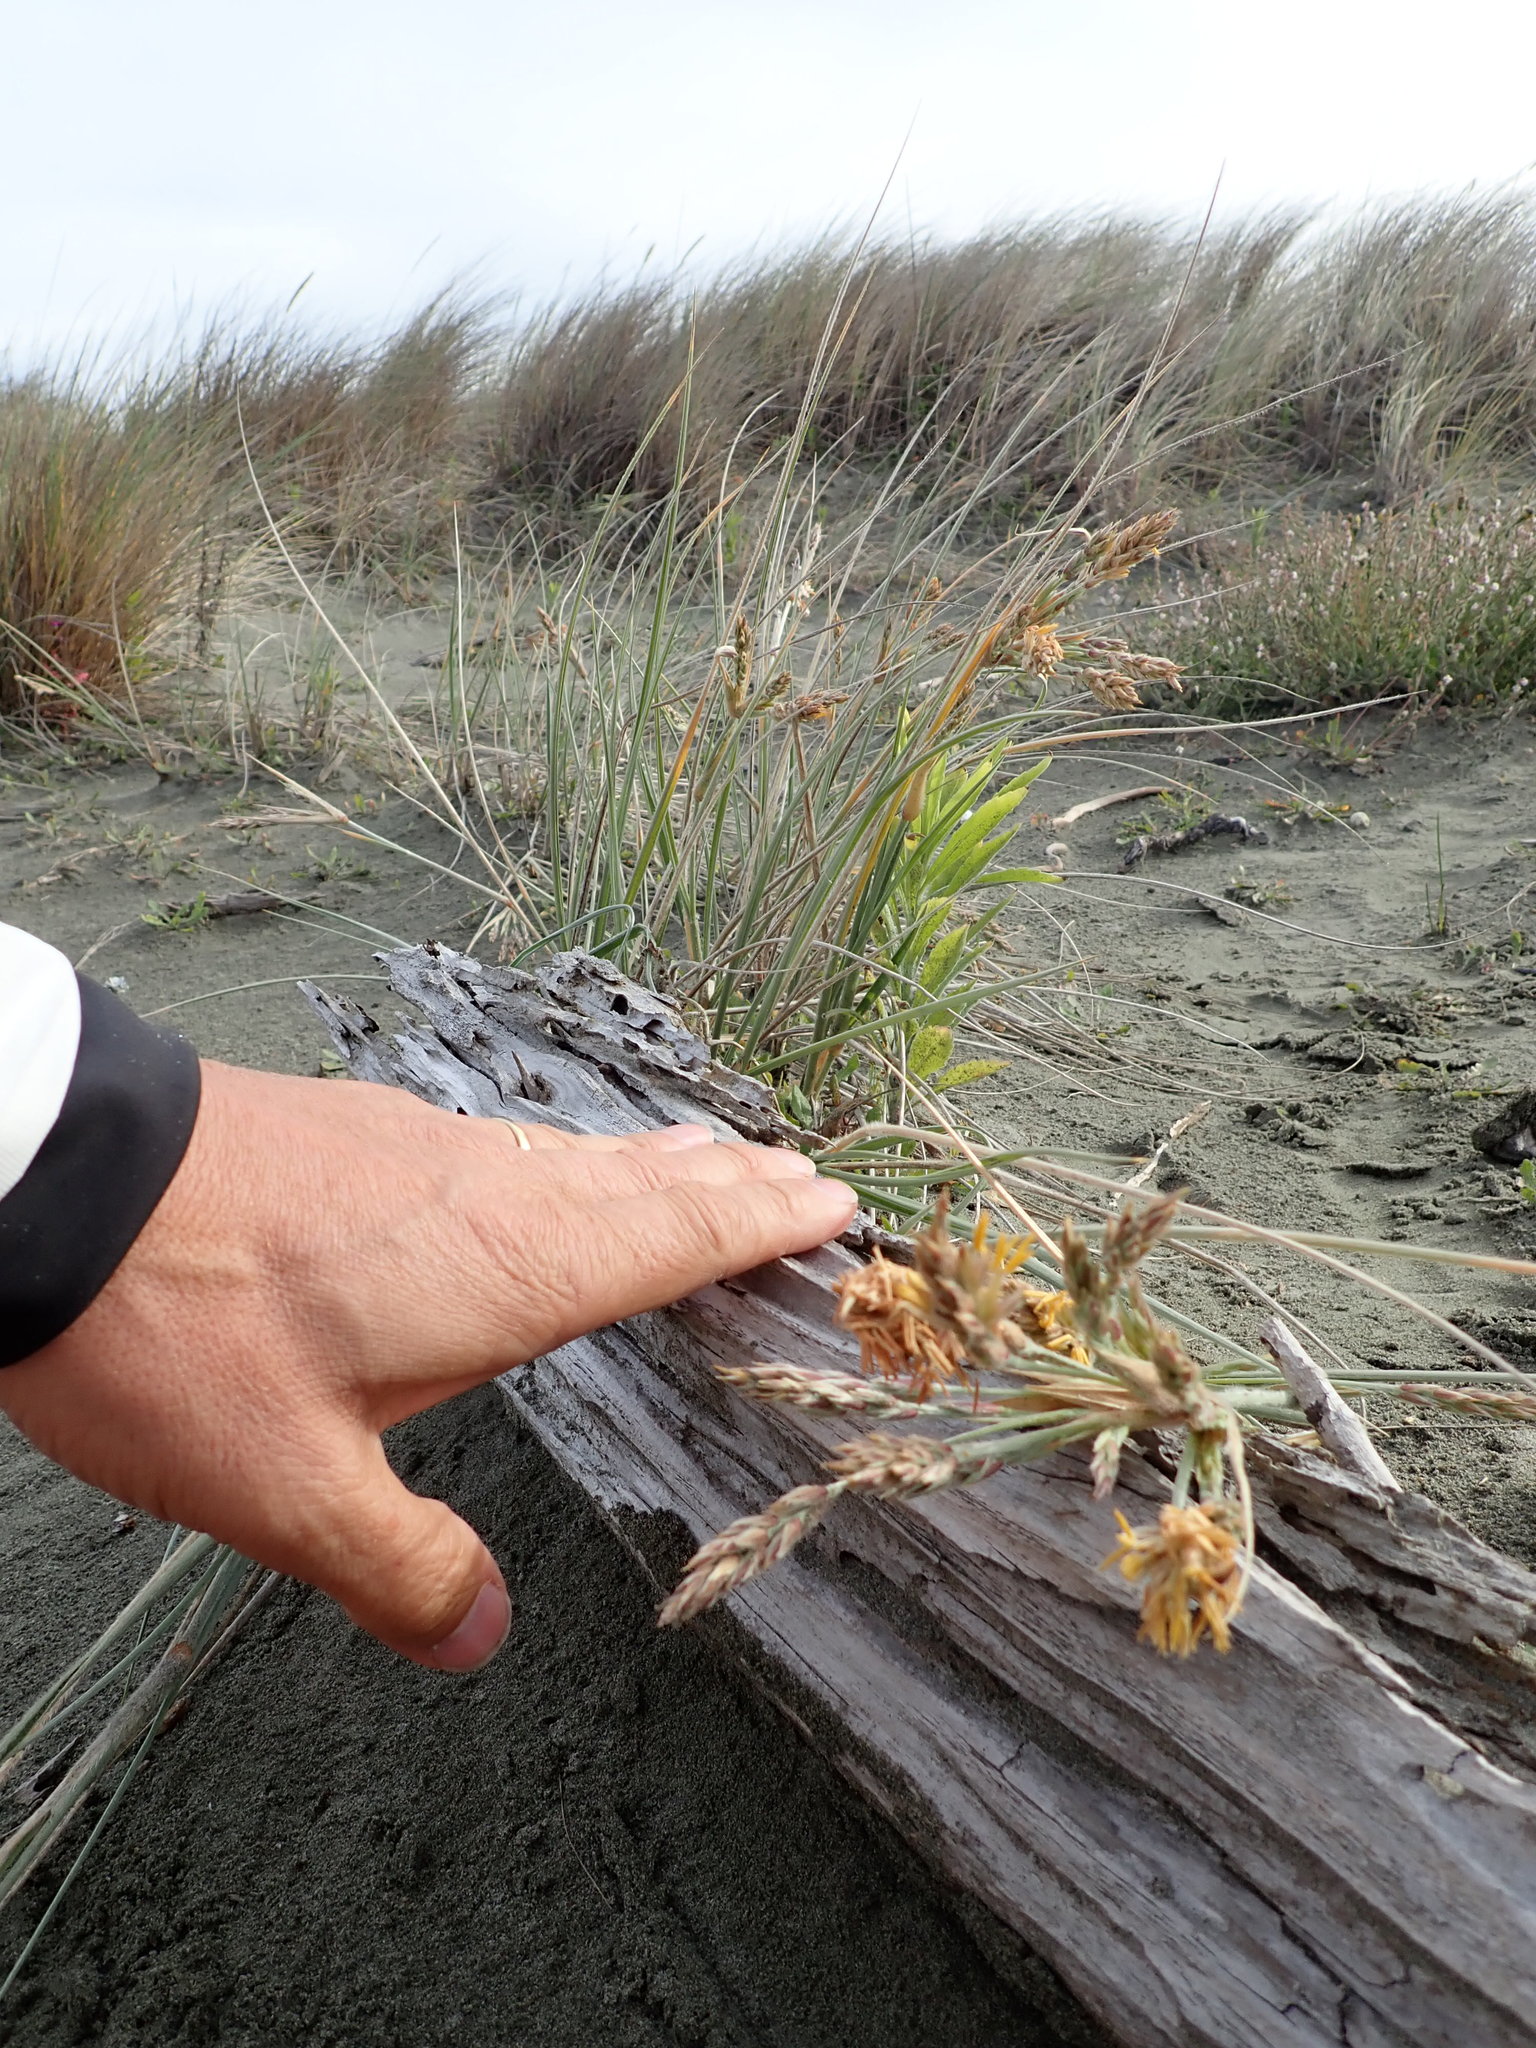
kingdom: Plantae
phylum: Tracheophyta
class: Liliopsida
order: Poales
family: Poaceae
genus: Spinifex
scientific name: Spinifex sericeus
